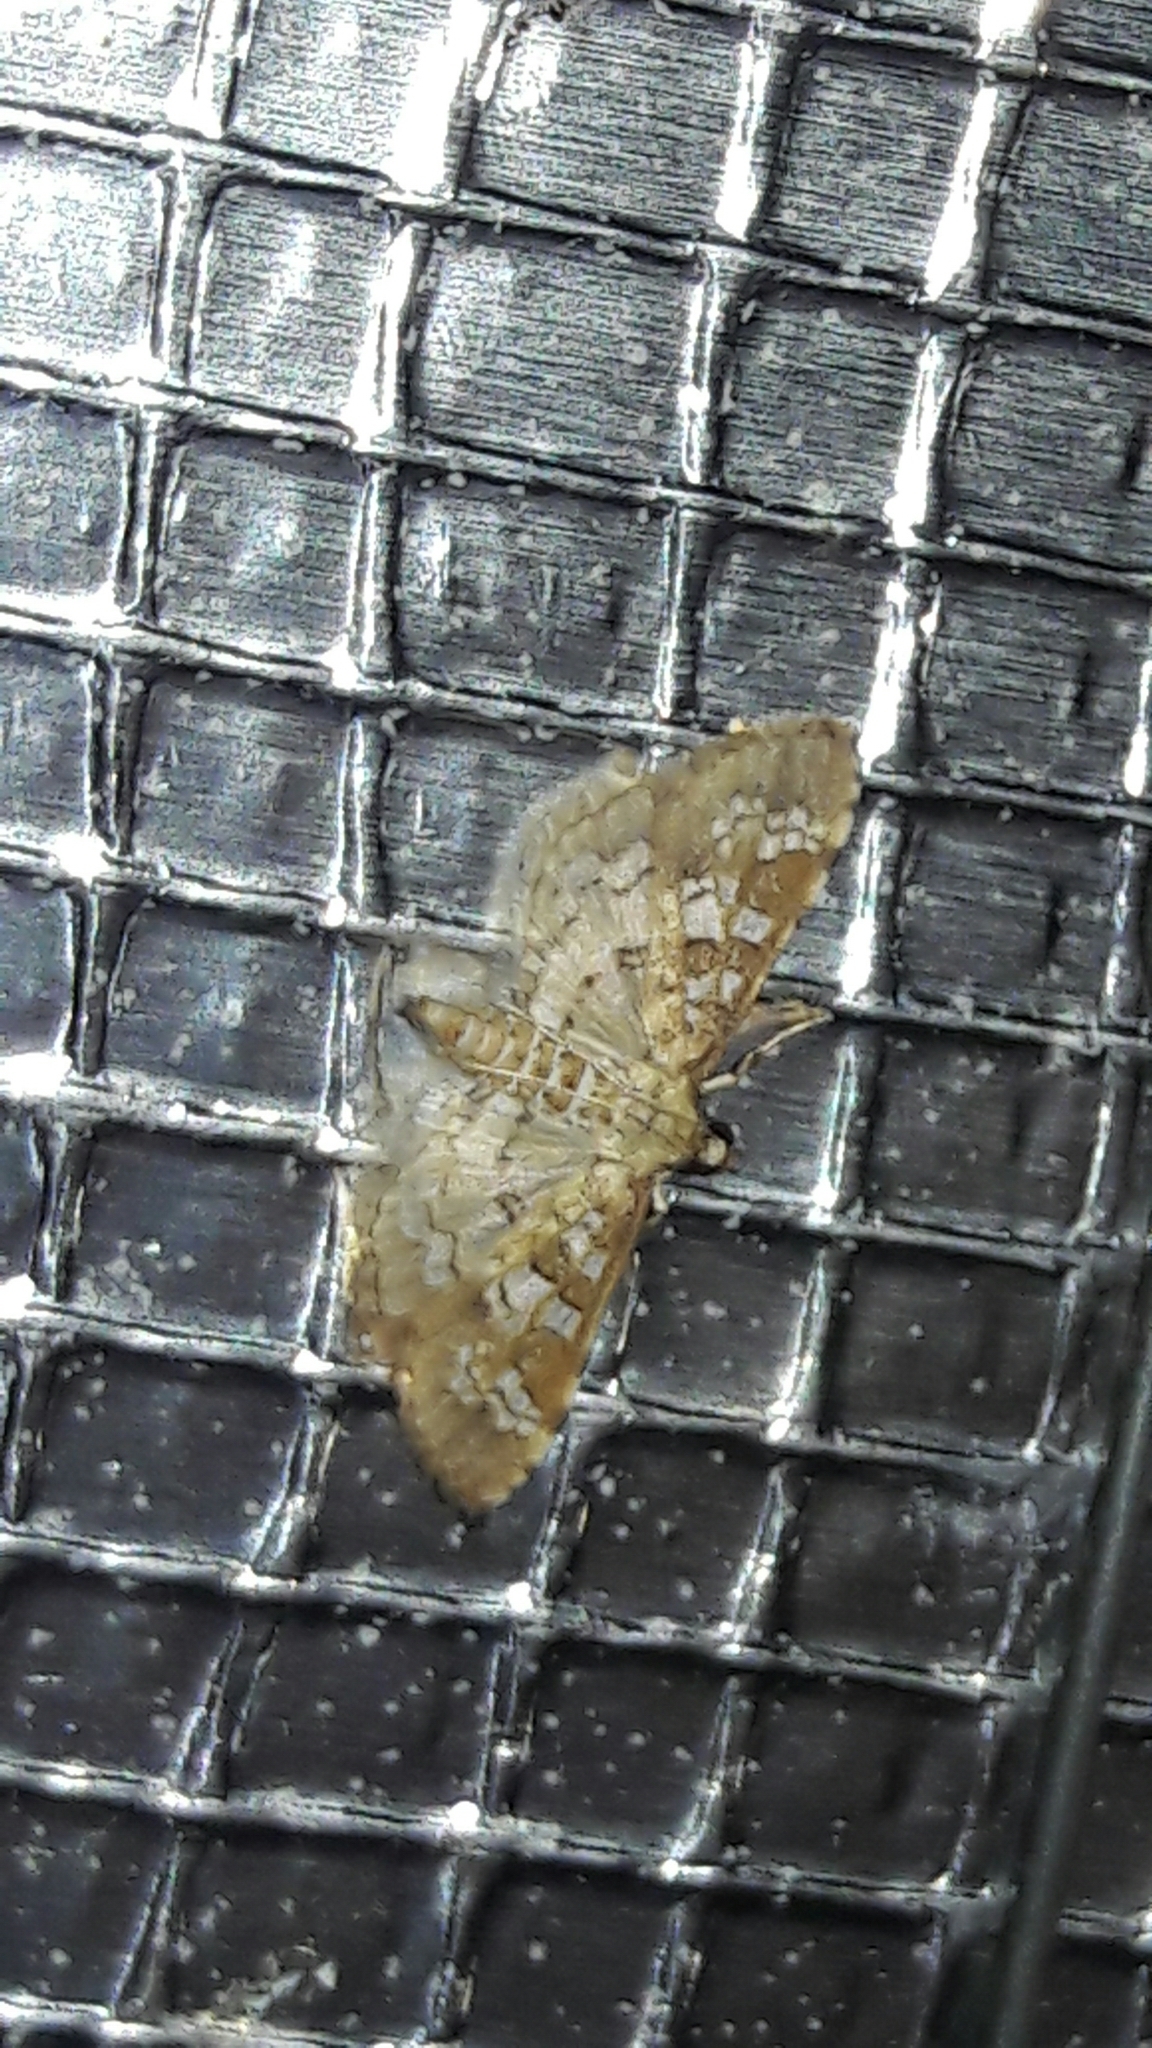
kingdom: Animalia
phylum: Arthropoda
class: Insecta
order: Lepidoptera
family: Crambidae
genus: Samea
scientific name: Samea ecclesialis
